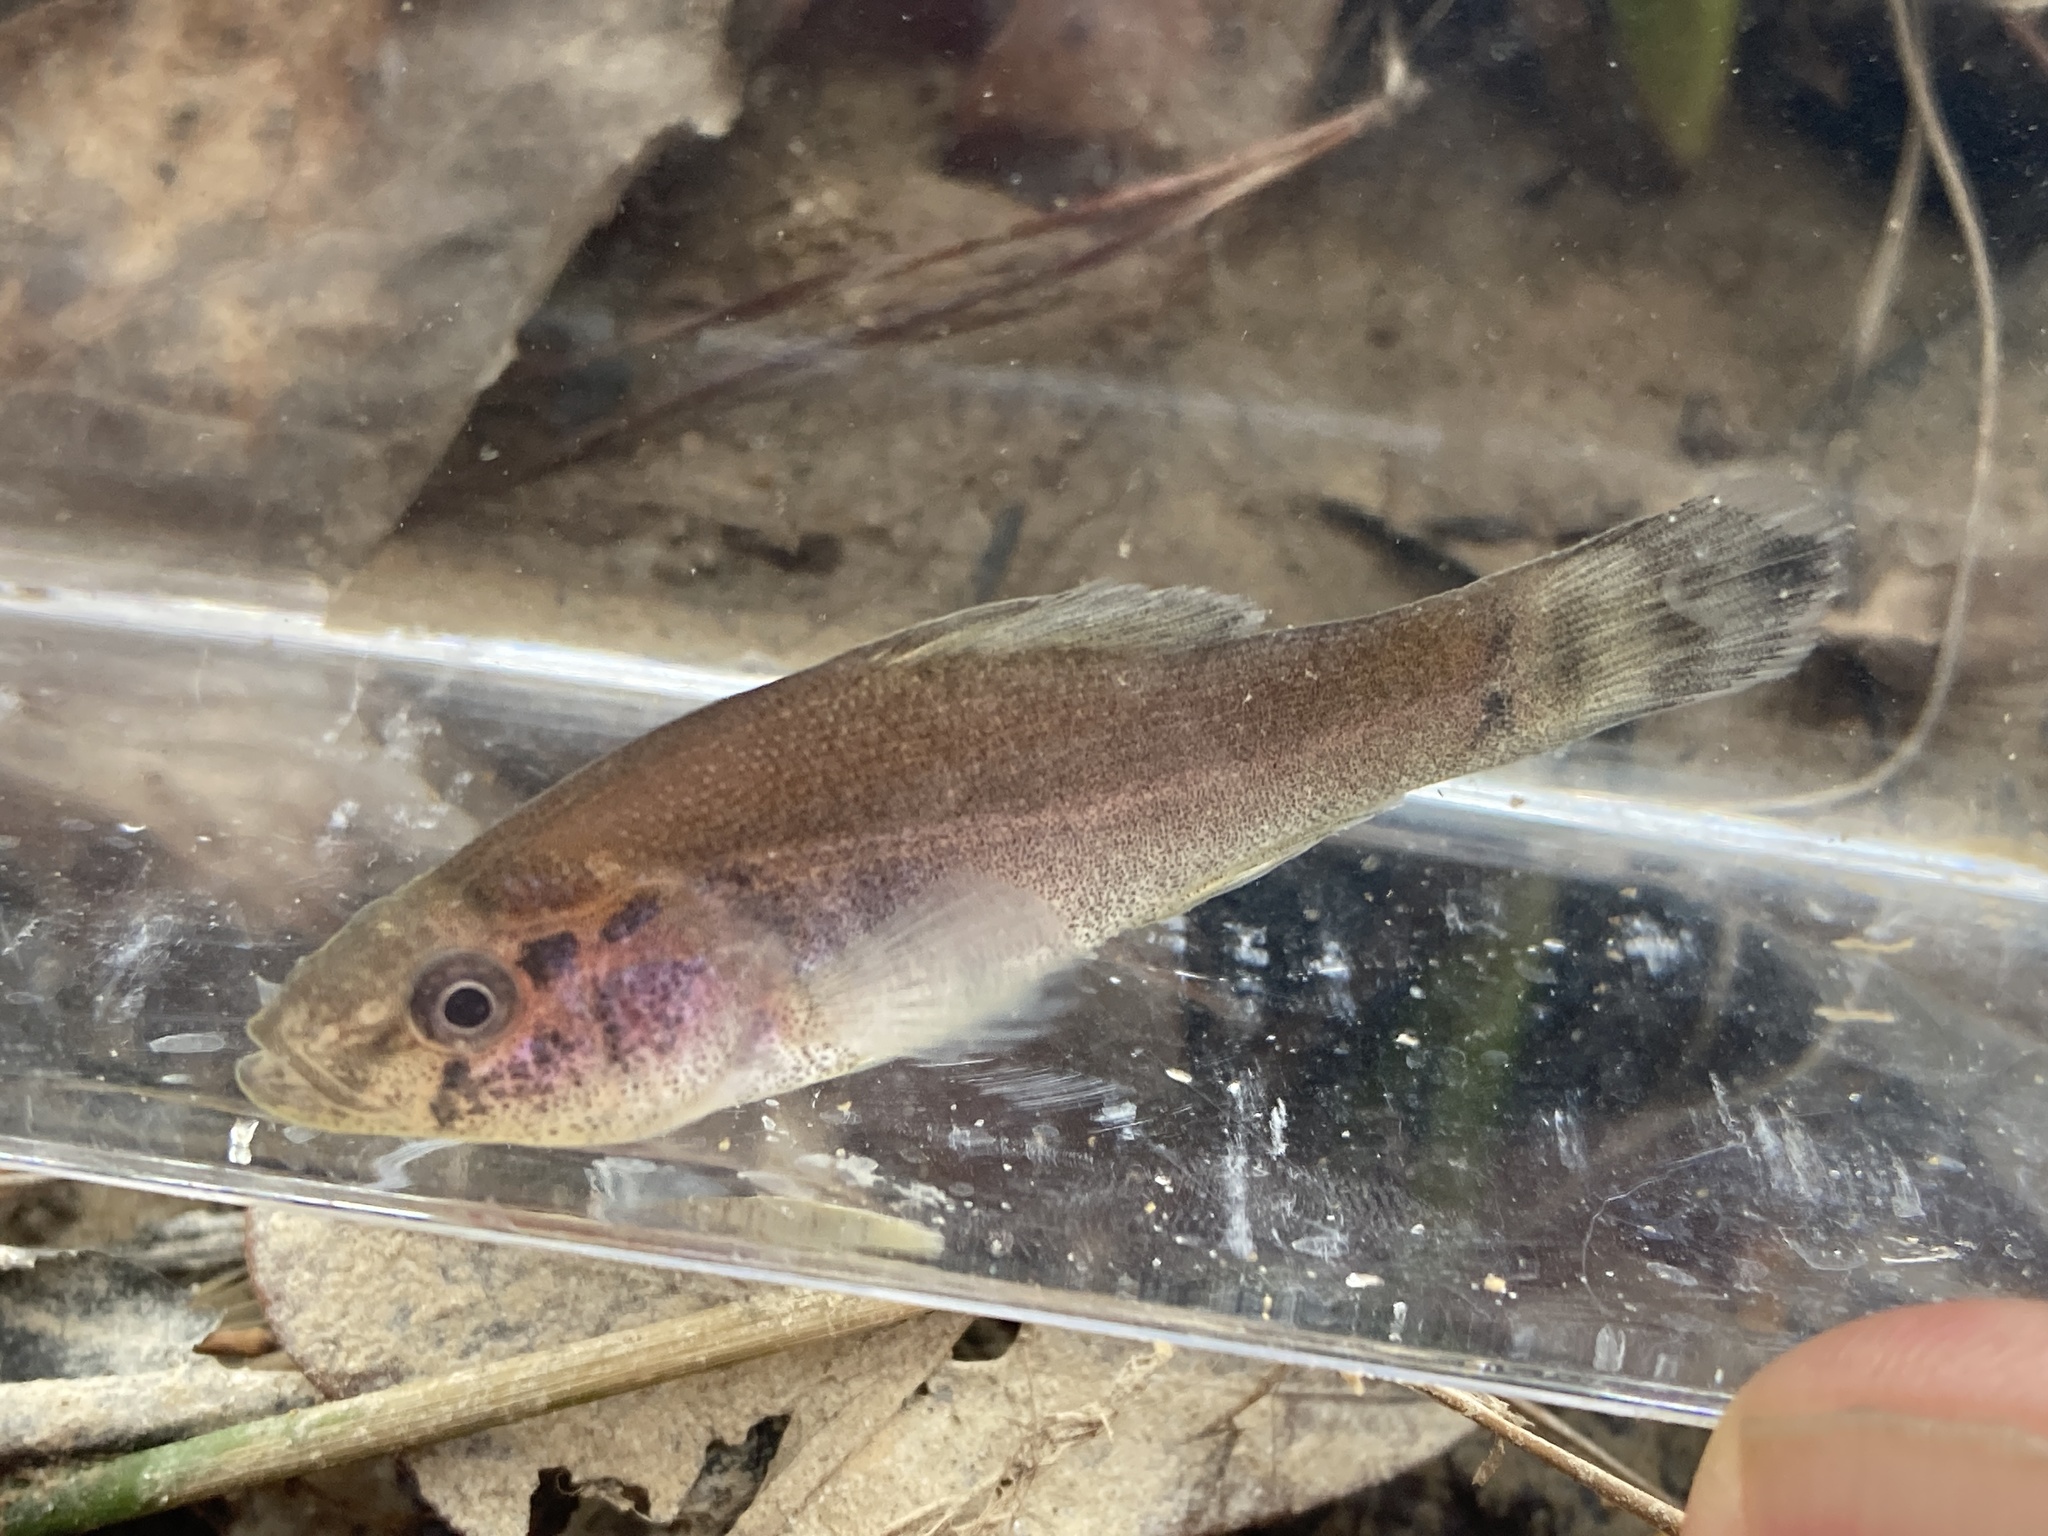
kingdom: Animalia
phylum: Chordata
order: Percopsiformes
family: Aphredoderidae
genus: Aphredoderus
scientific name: Aphredoderus sayanus
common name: Pirate perch
